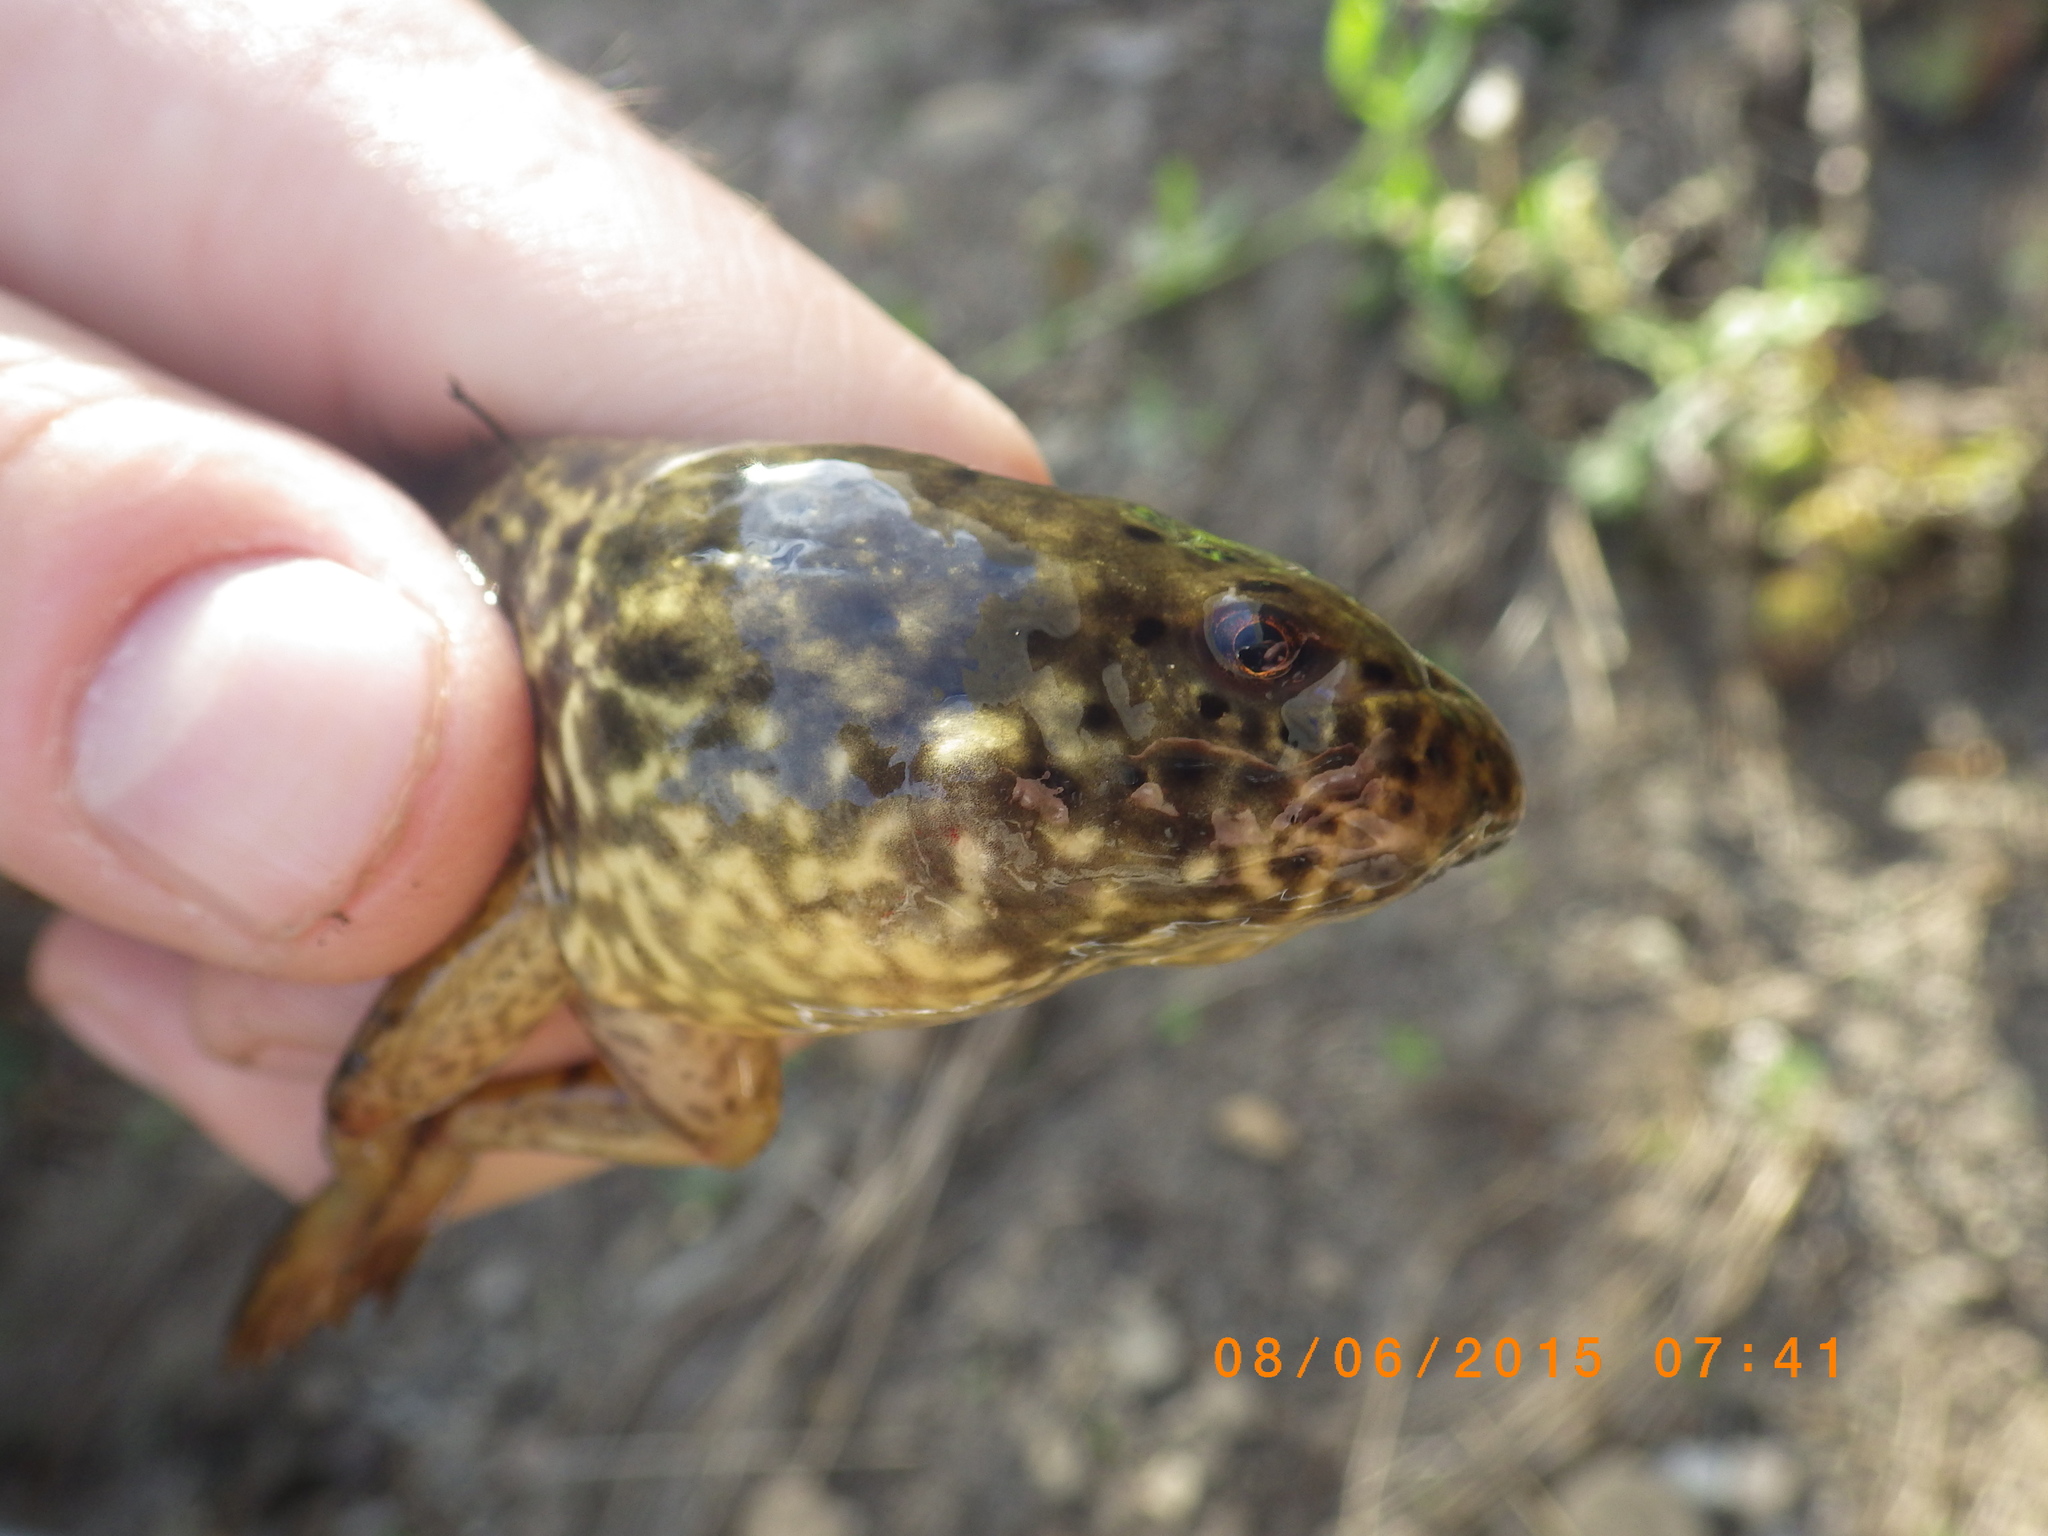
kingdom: Animalia
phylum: Chordata
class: Amphibia
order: Anura
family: Ranidae
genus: Lithobates
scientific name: Lithobates catesbeianus
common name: American bullfrog
